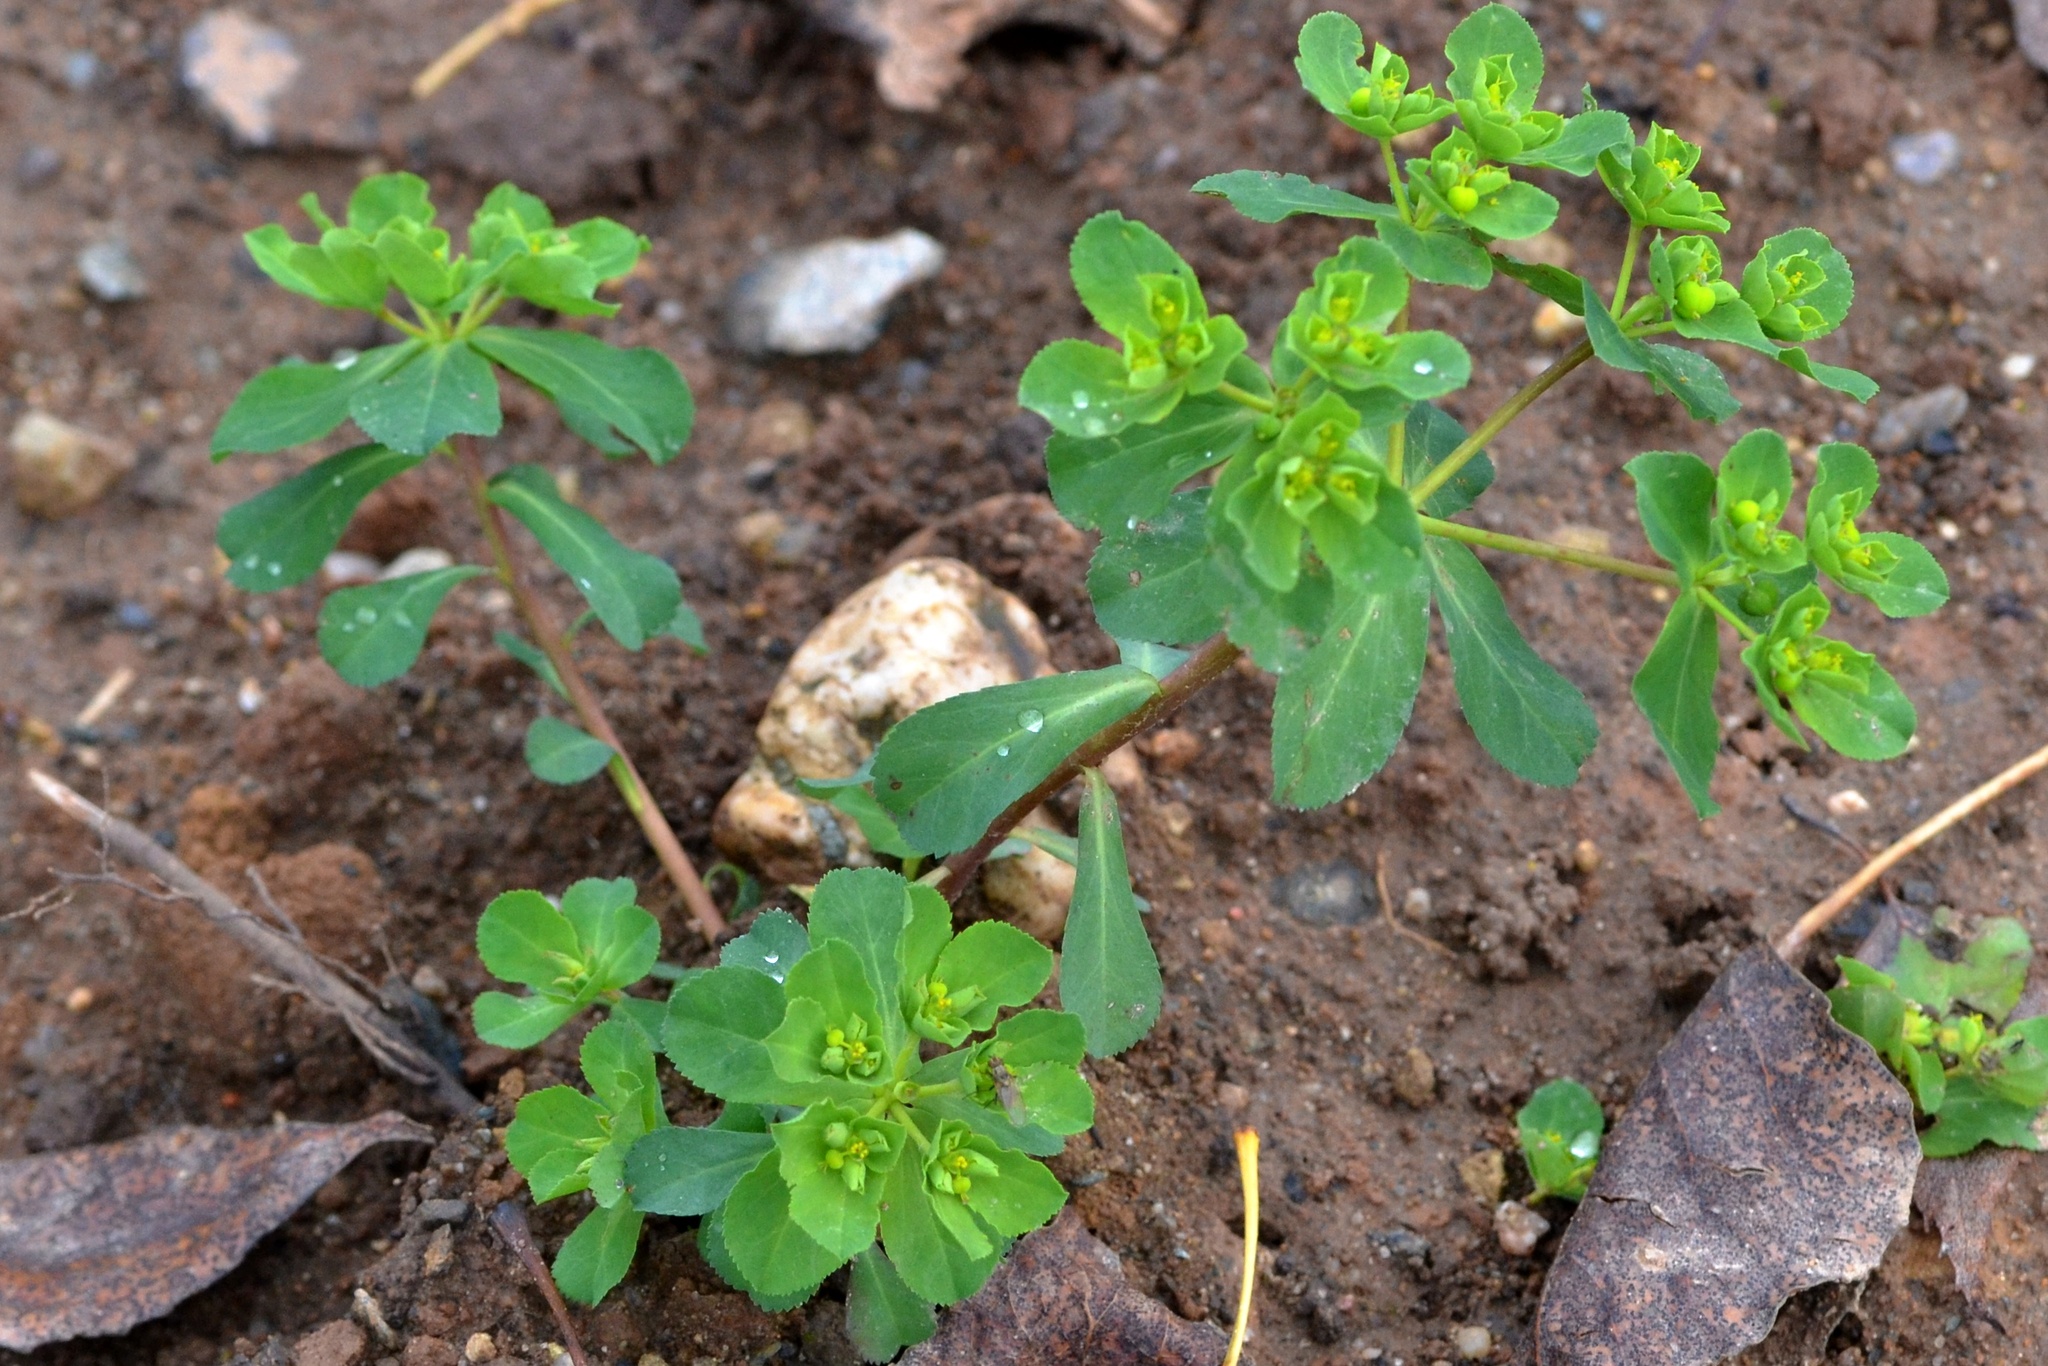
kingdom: Plantae
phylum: Tracheophyta
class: Magnoliopsida
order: Malpighiales
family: Euphorbiaceae
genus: Euphorbia
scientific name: Euphorbia helioscopia
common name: Sun spurge
